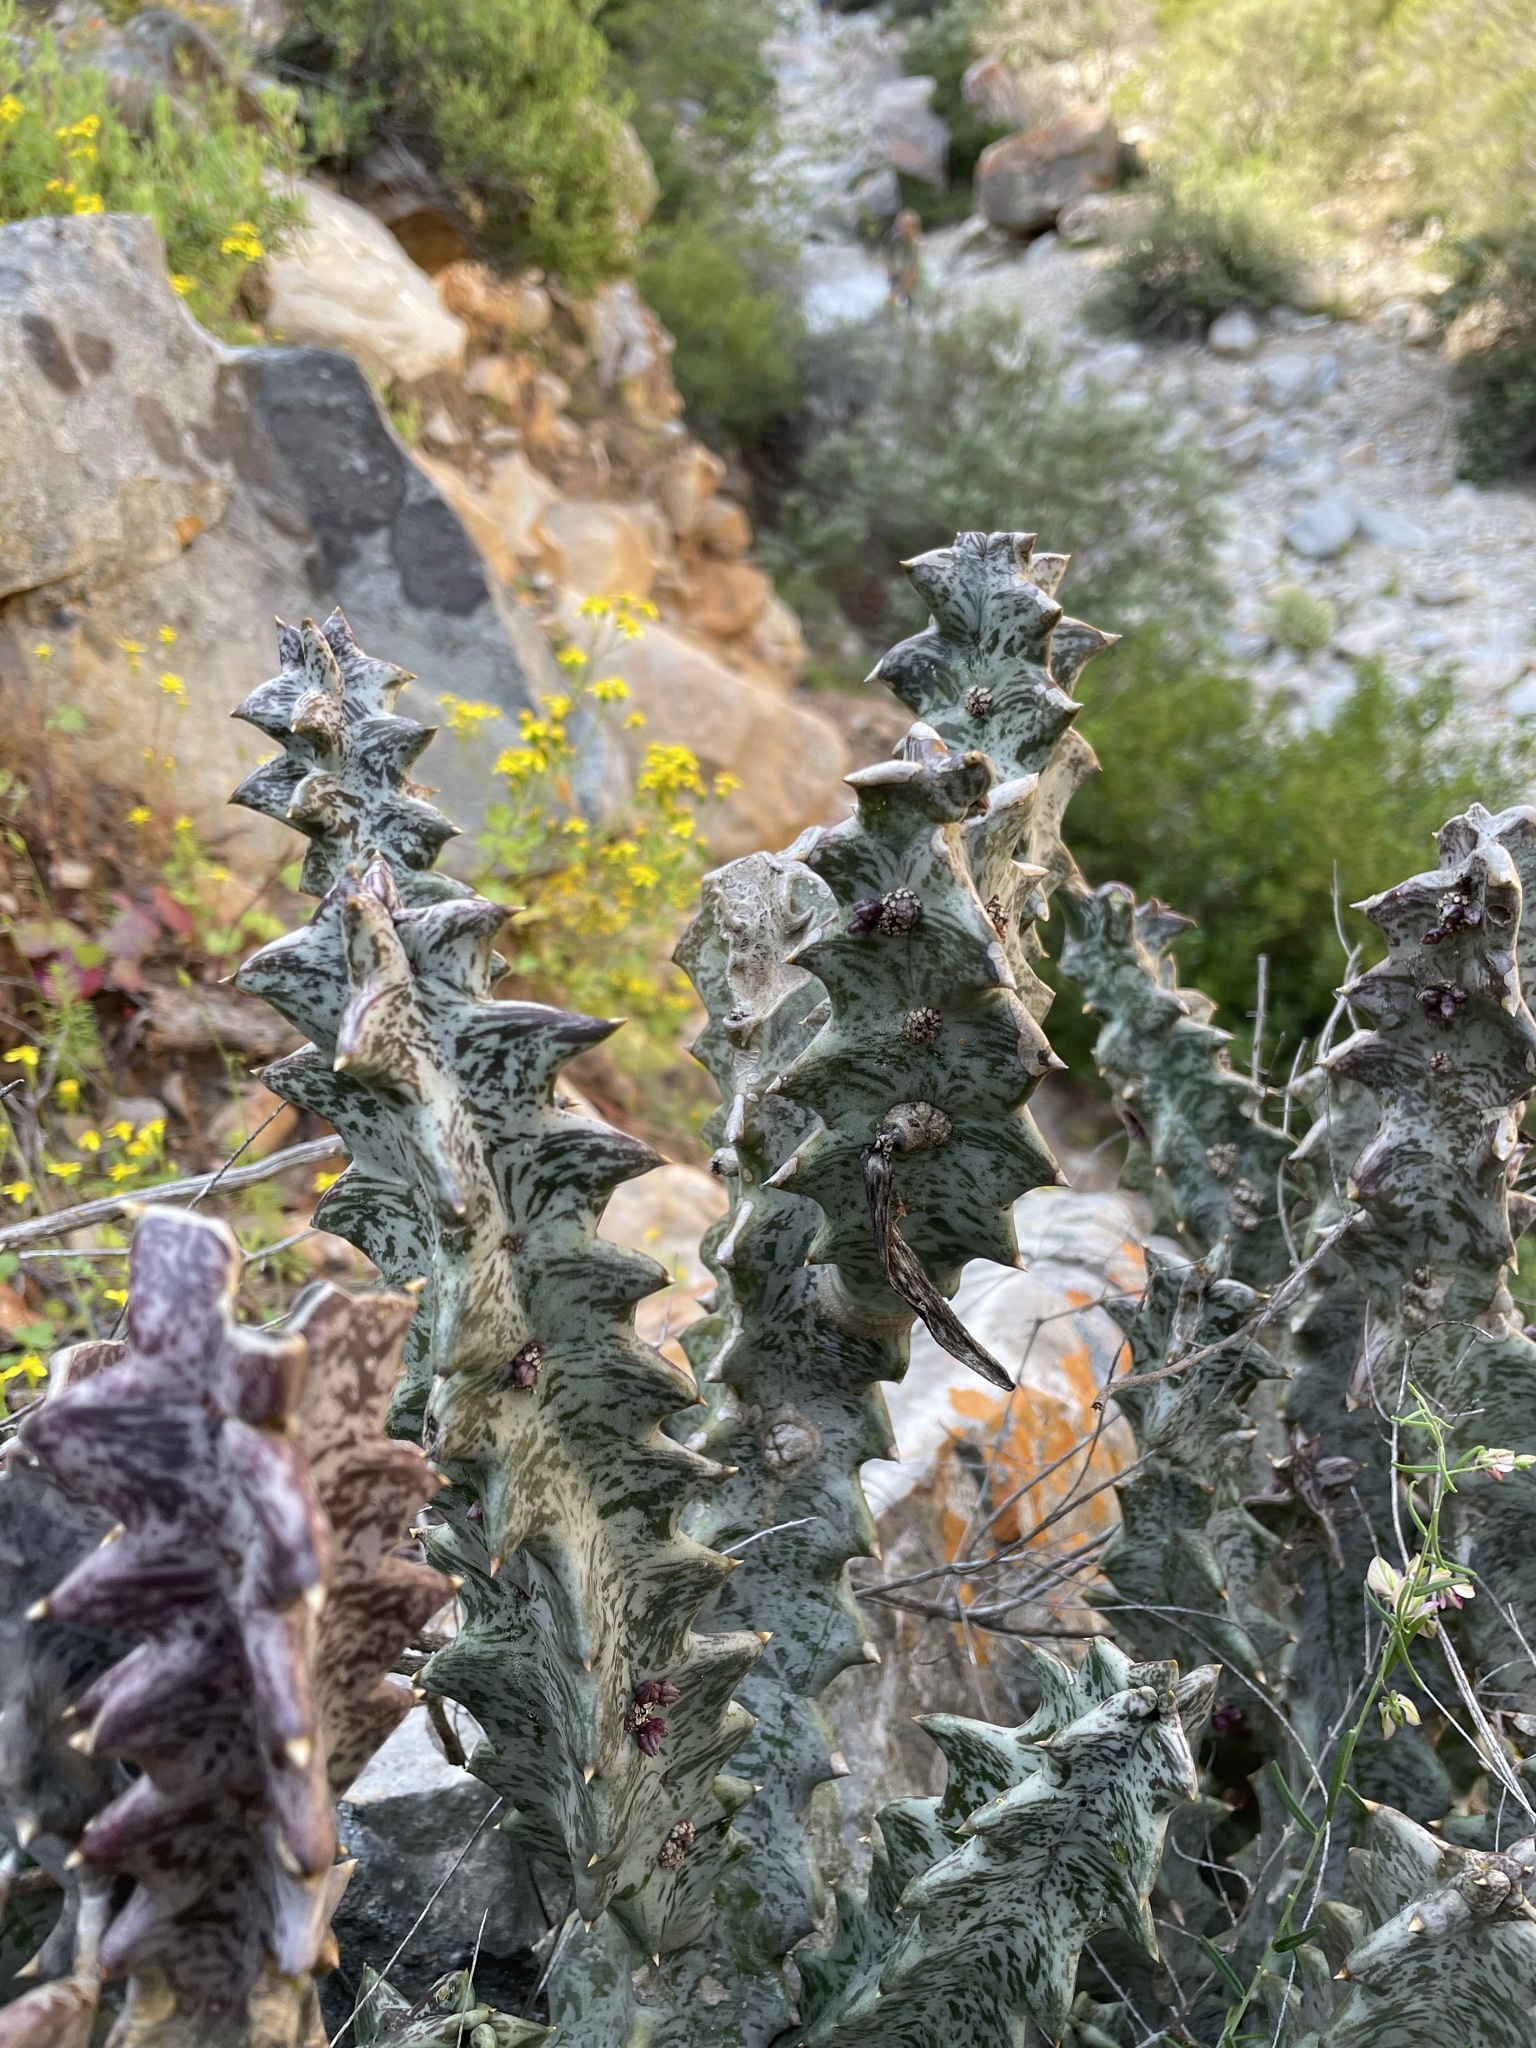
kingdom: Plantae
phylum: Tracheophyta
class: Magnoliopsida
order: Gentianales
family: Apocynaceae
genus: Ceropegia
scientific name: Ceropegia nevillei
